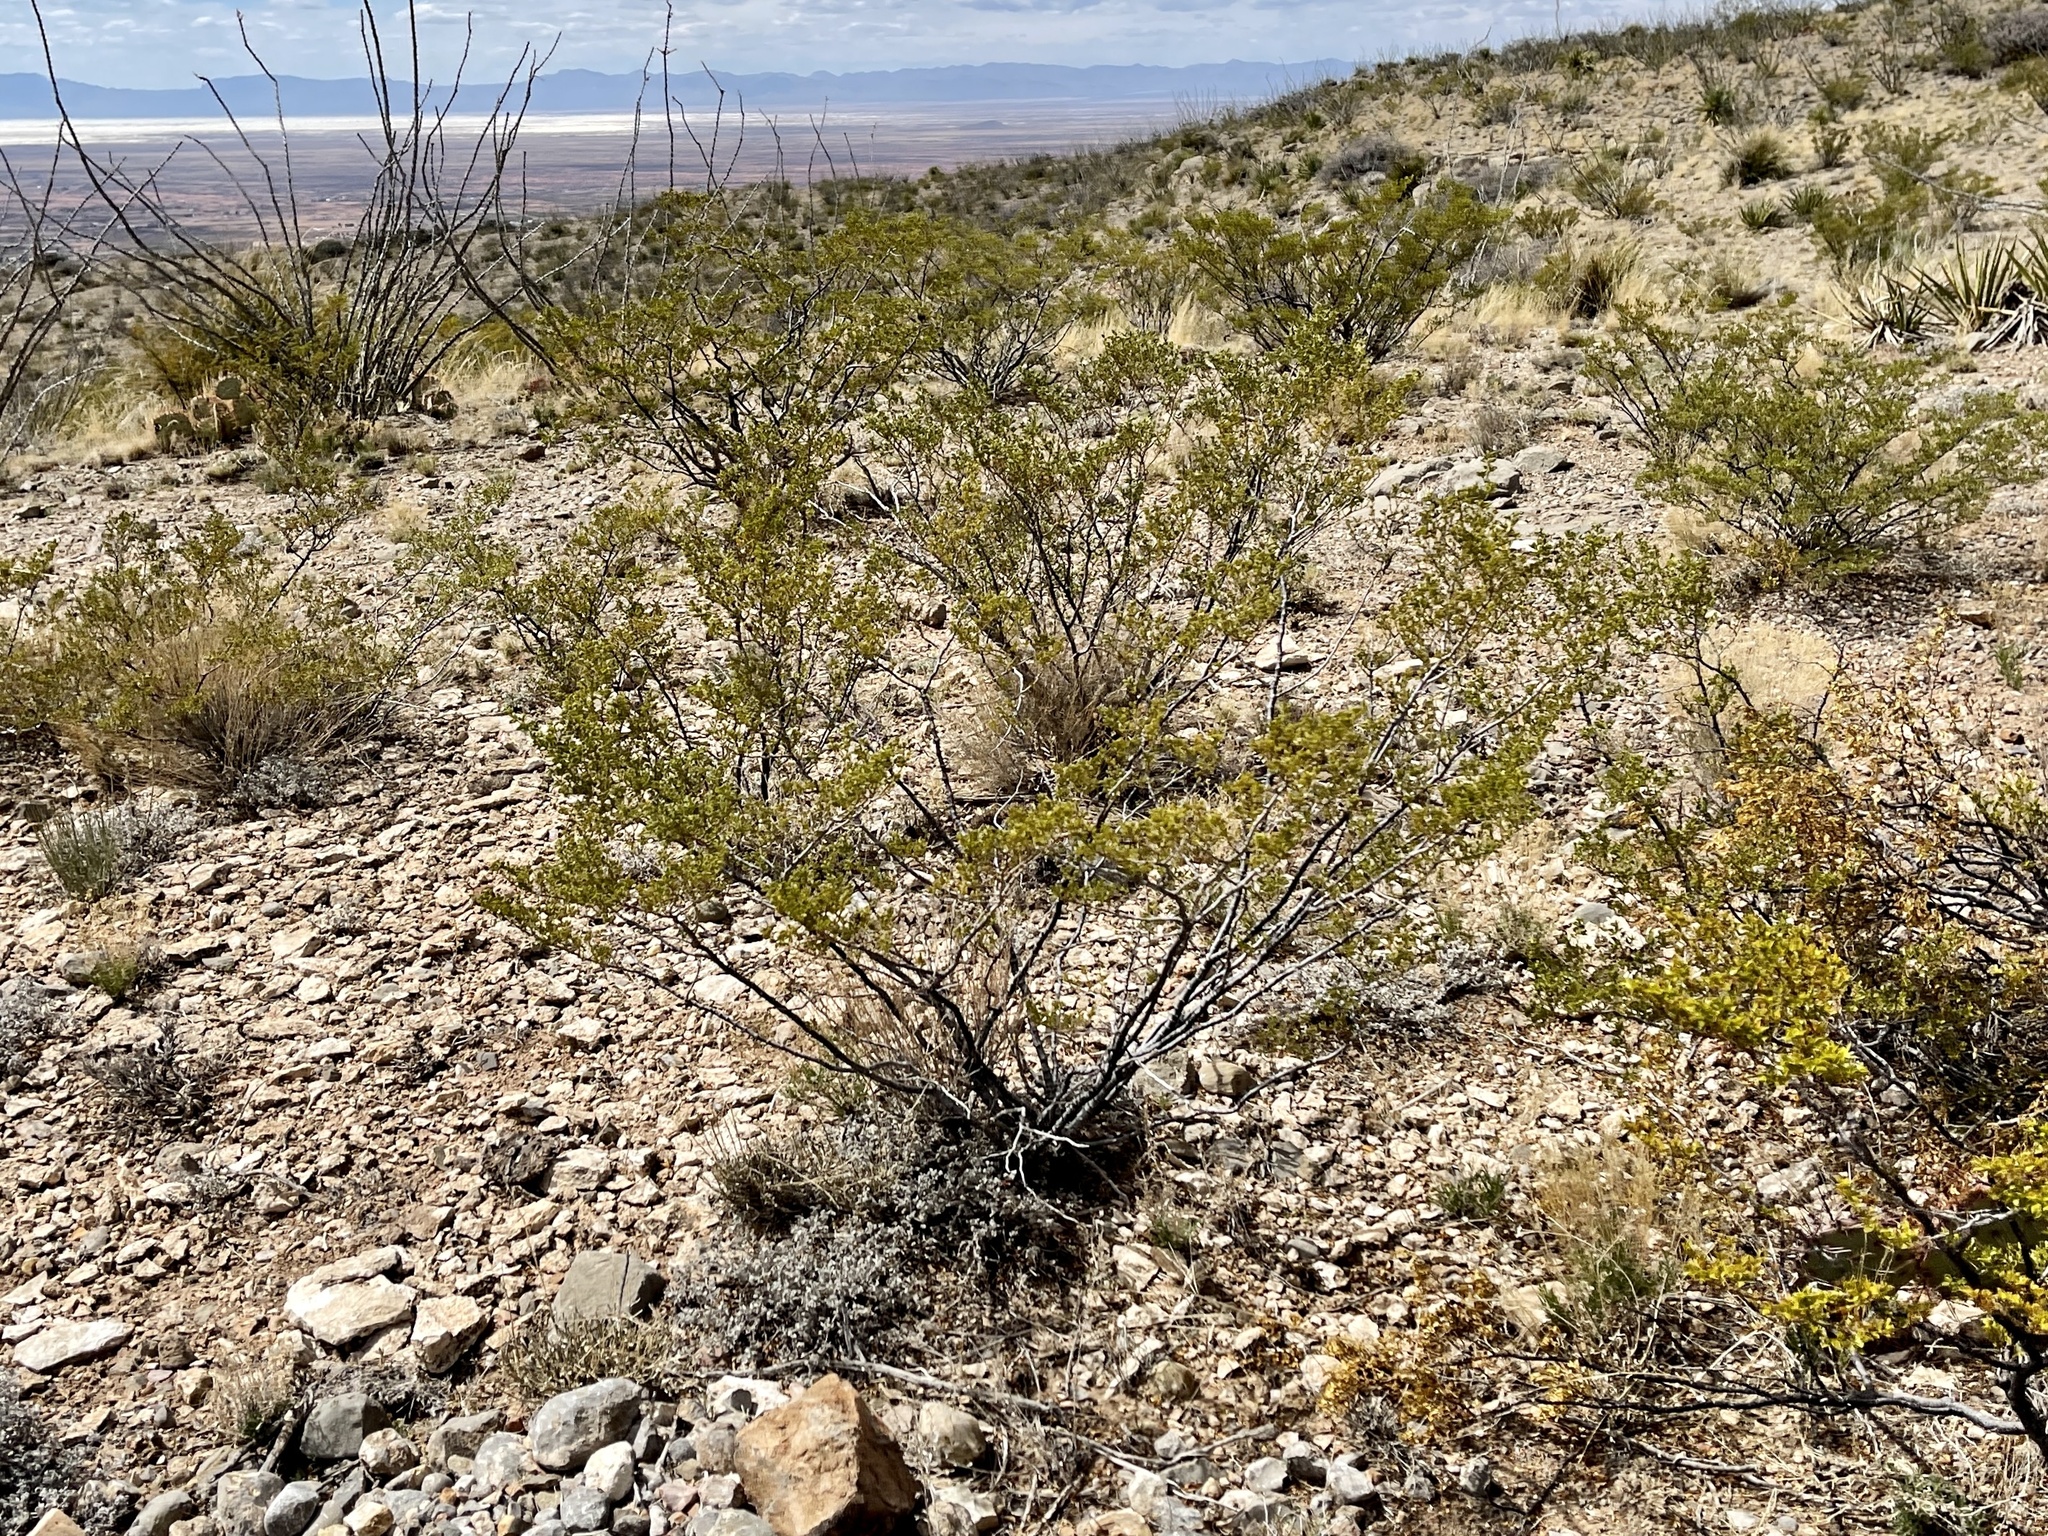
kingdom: Plantae
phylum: Tracheophyta
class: Magnoliopsida
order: Zygophyllales
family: Zygophyllaceae
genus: Larrea
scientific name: Larrea tridentata
